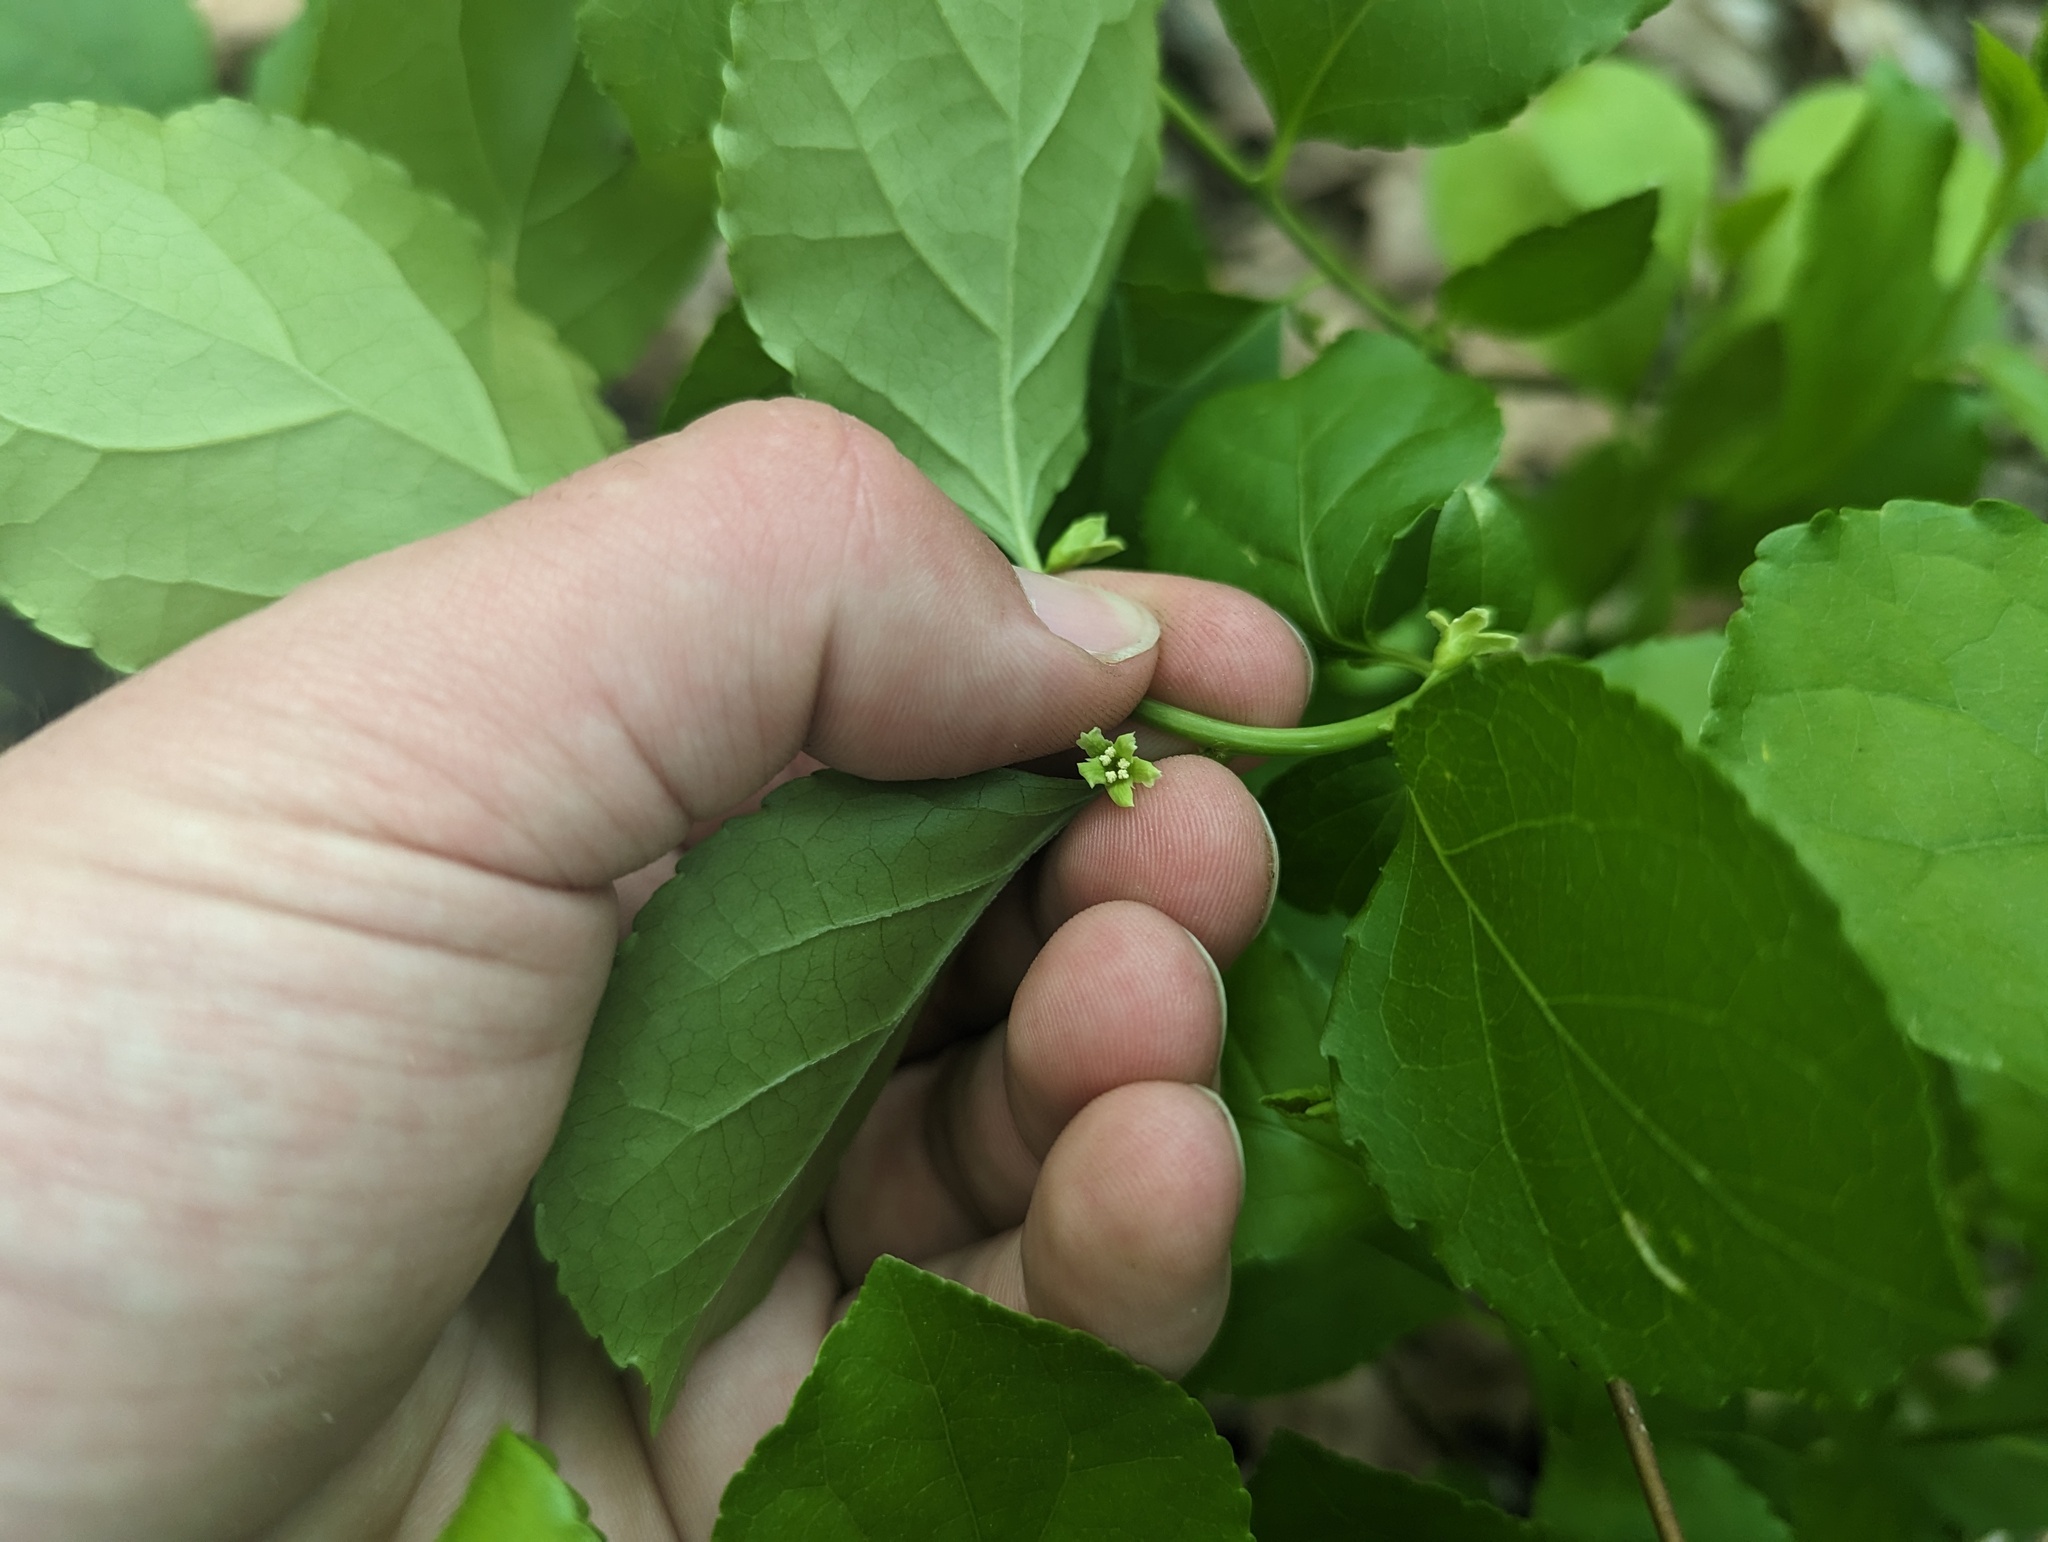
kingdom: Plantae
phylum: Tracheophyta
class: Magnoliopsida
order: Celastrales
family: Celastraceae
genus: Celastrus
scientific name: Celastrus orbiculatus
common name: Oriental bittersweet
